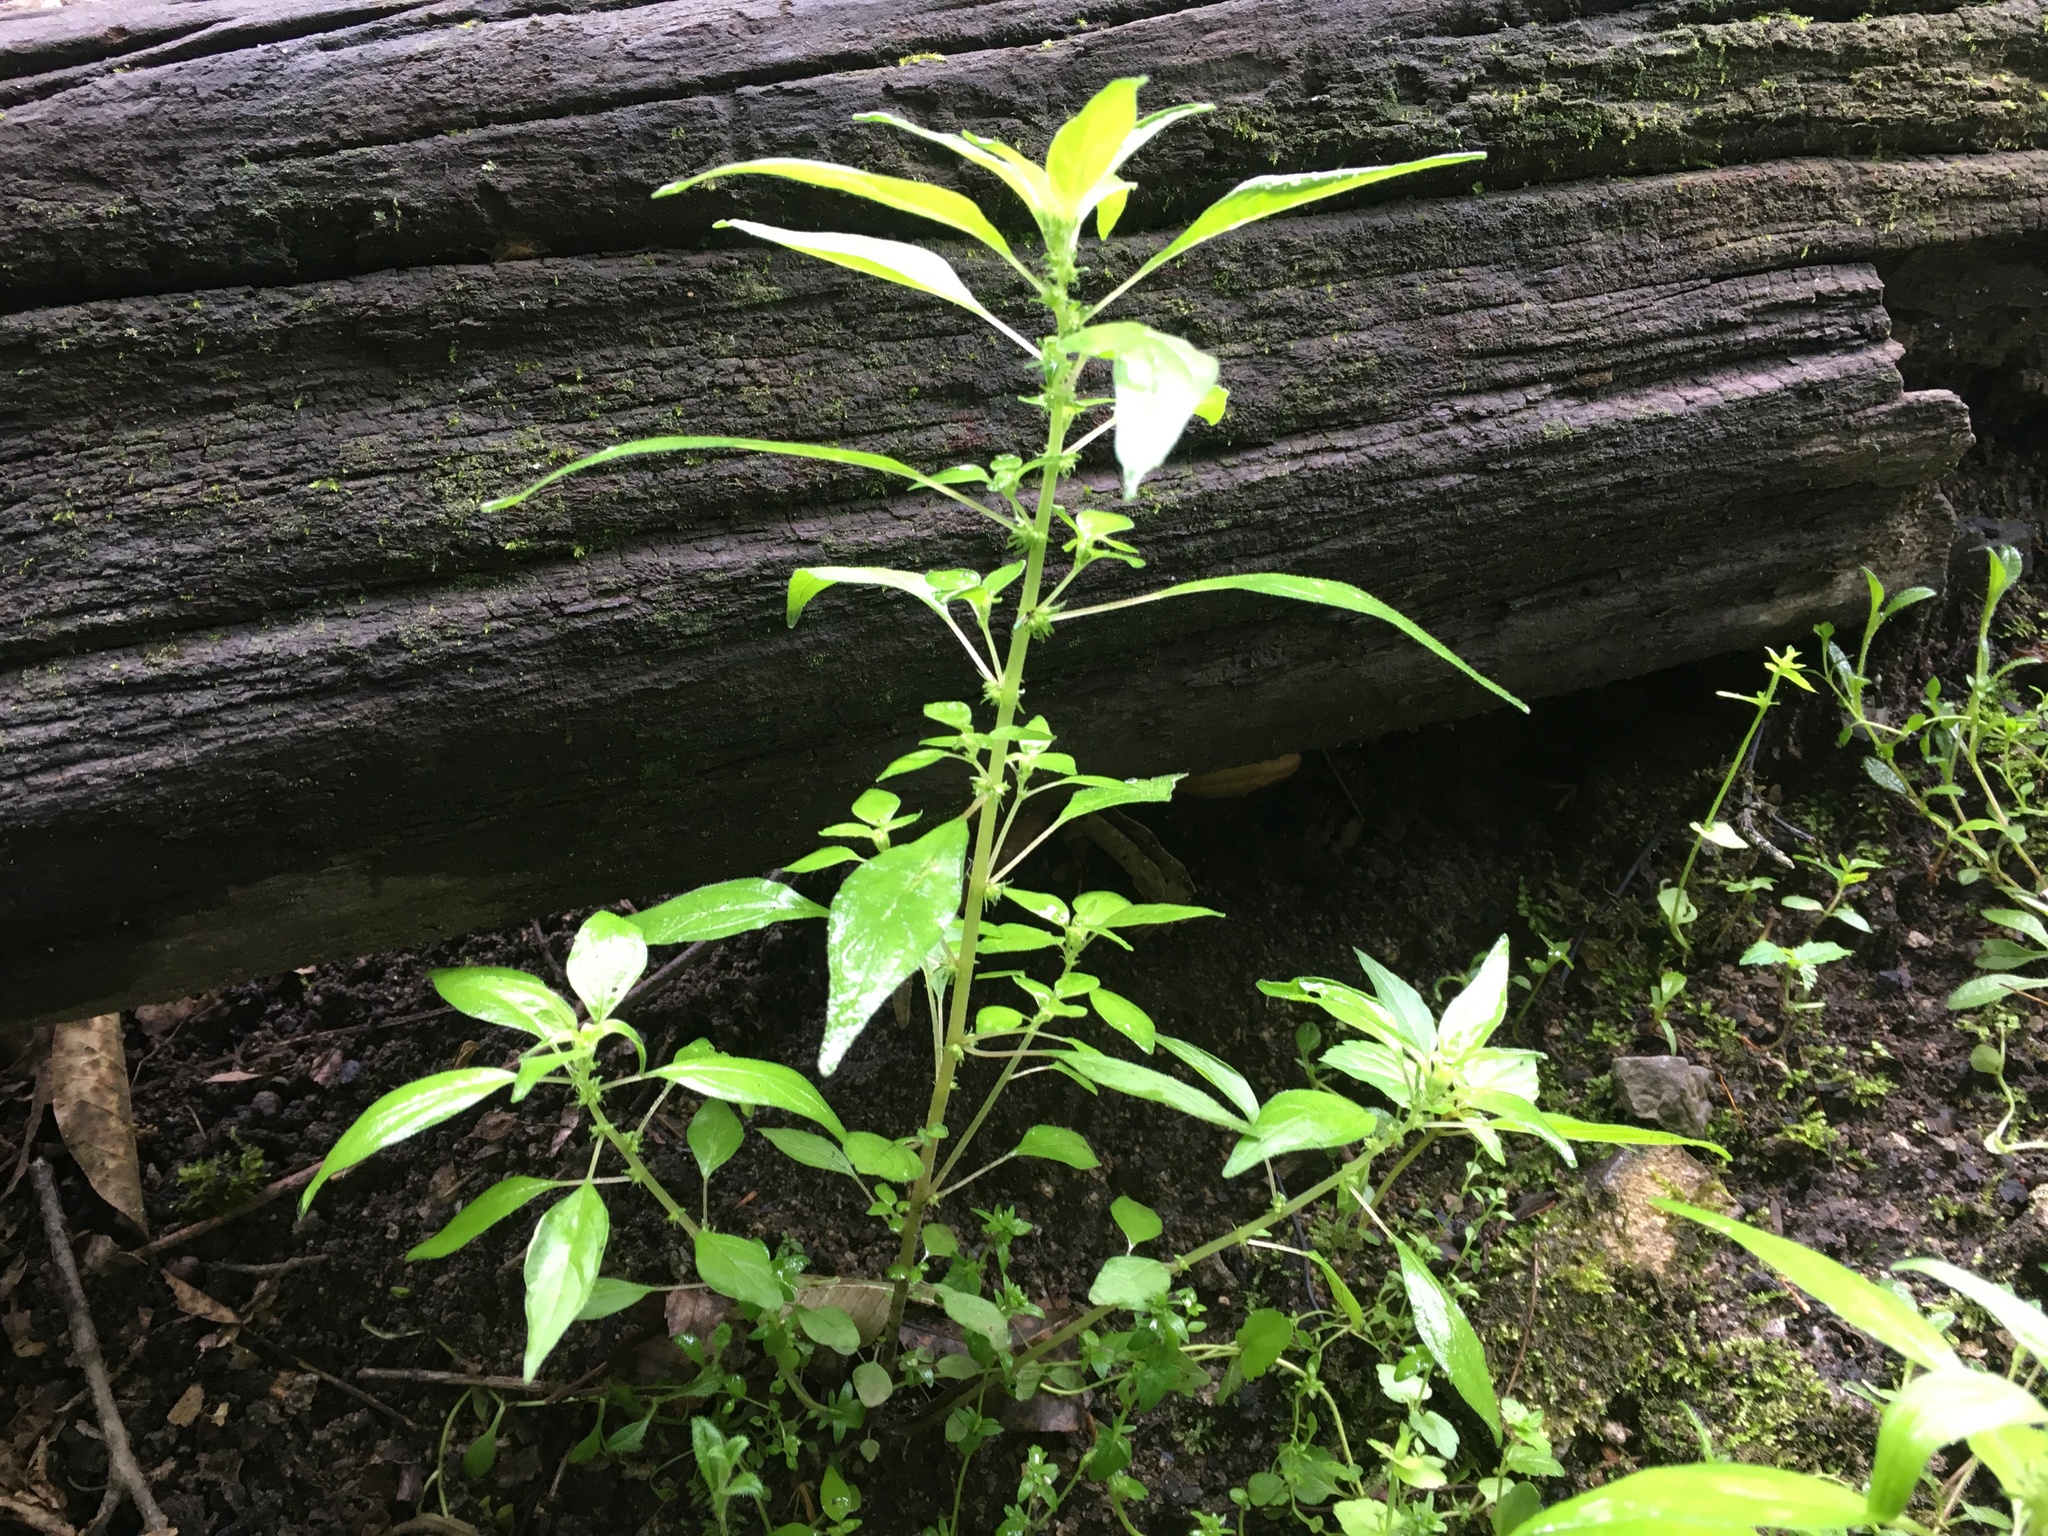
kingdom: Plantae
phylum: Tracheophyta
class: Magnoliopsida
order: Rosales
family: Urticaceae
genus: Parietaria
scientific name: Parietaria pensylvanica
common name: Pennsylvania pellitory
